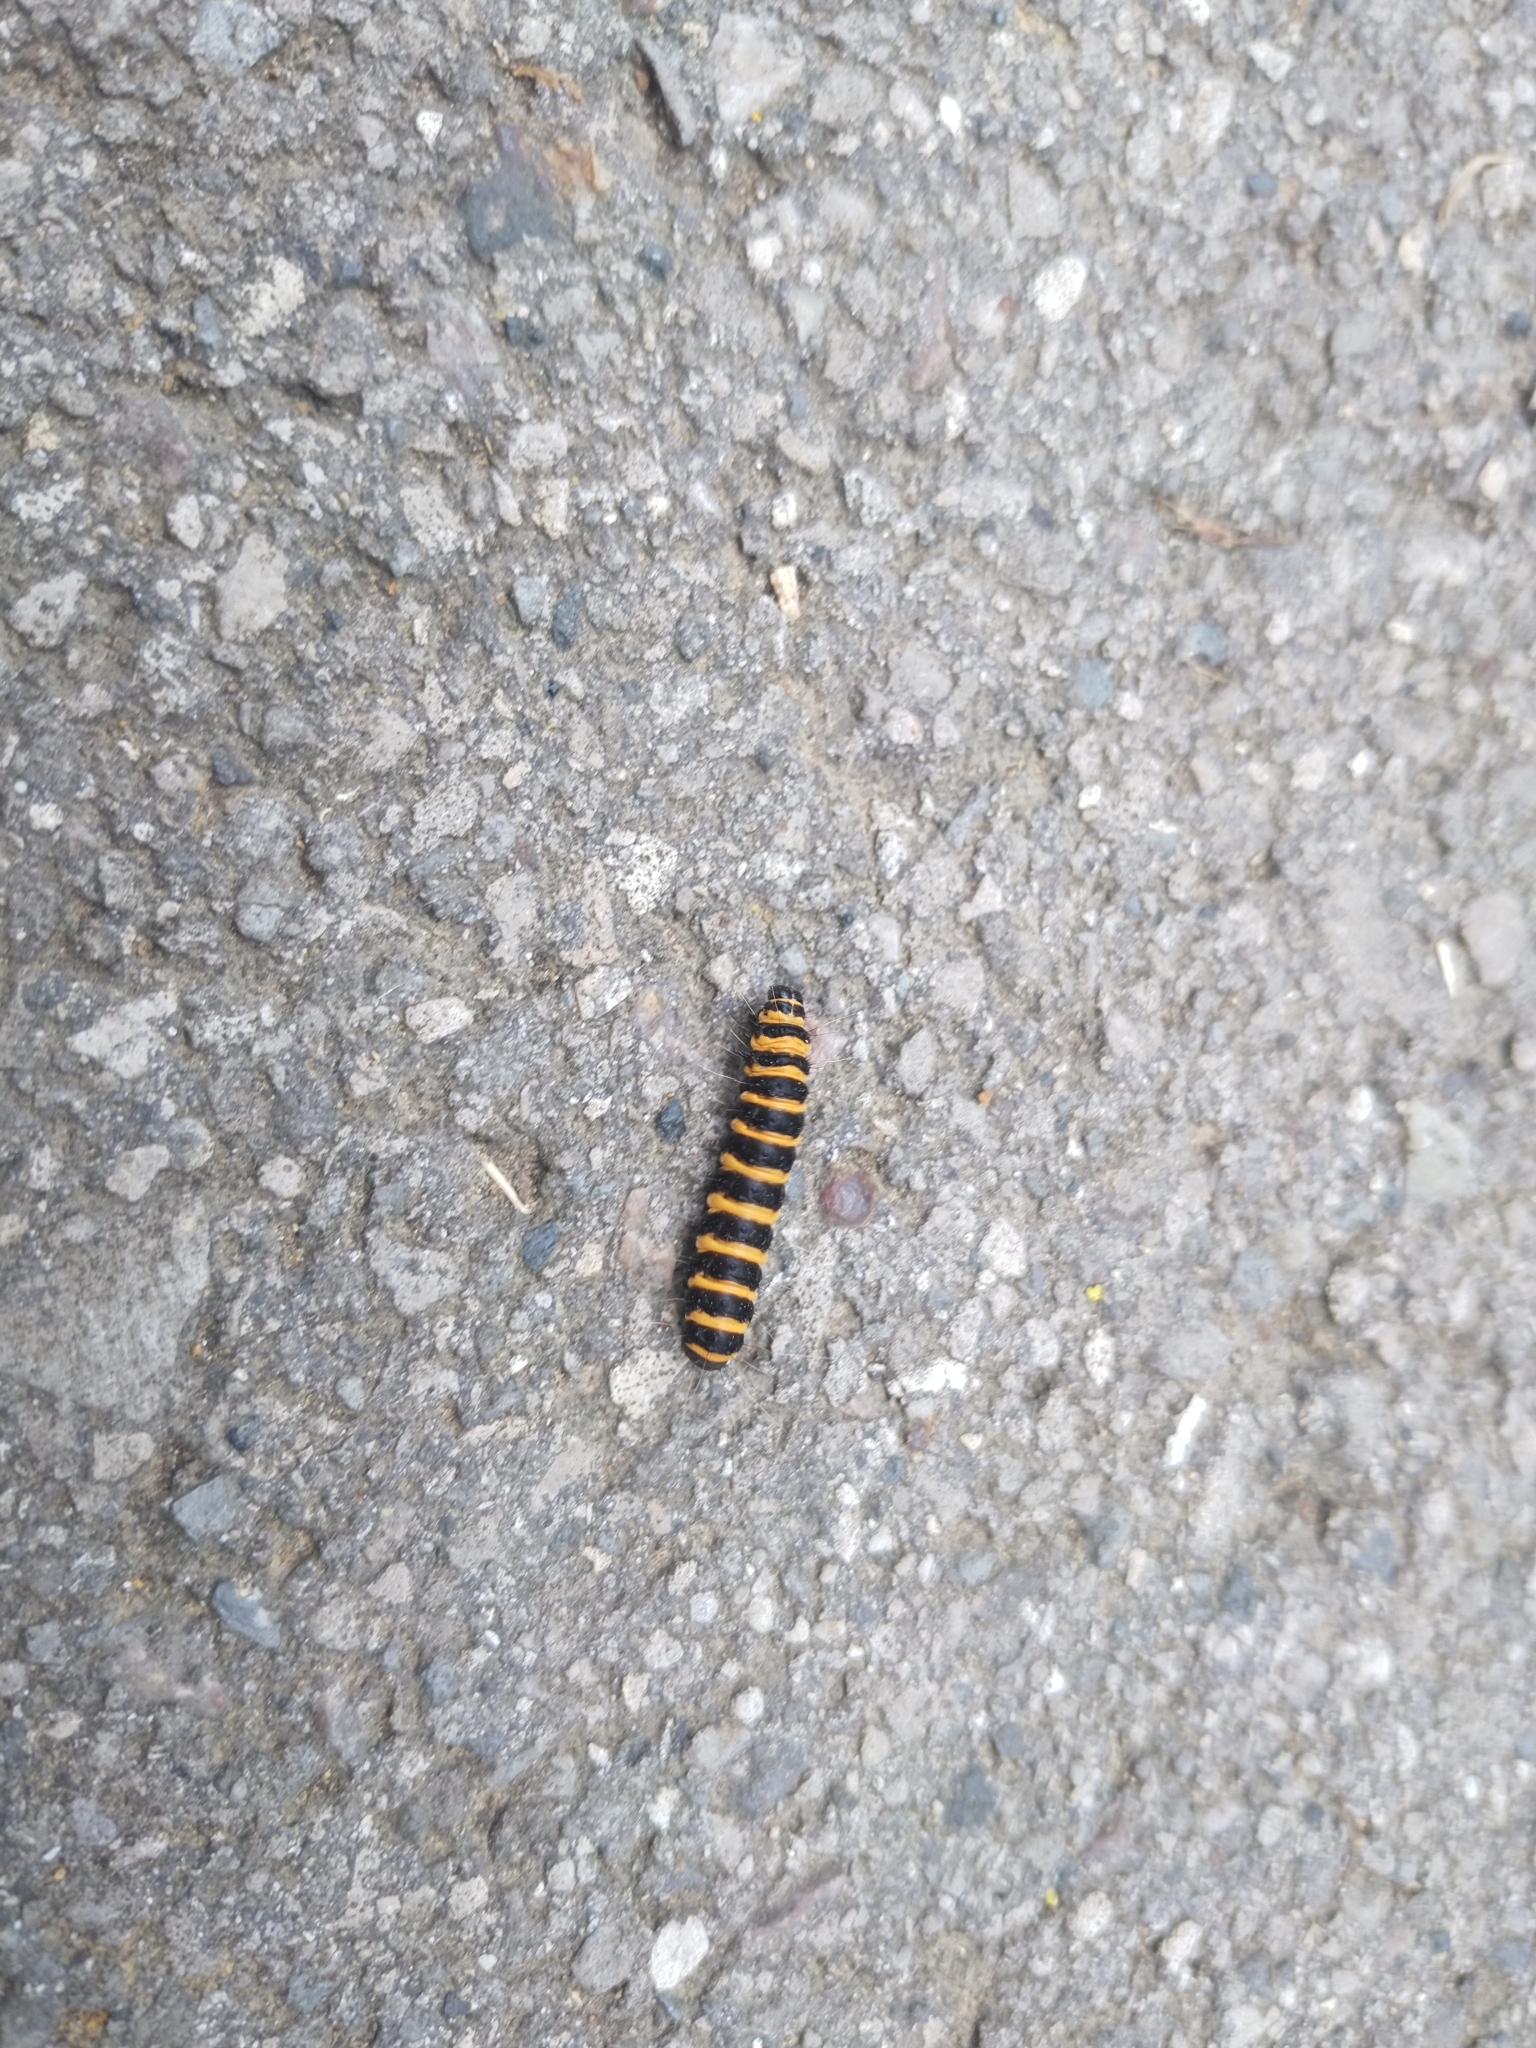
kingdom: Animalia
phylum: Arthropoda
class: Insecta
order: Lepidoptera
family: Erebidae
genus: Tyria
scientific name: Tyria jacobaeae
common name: Cinnabar
